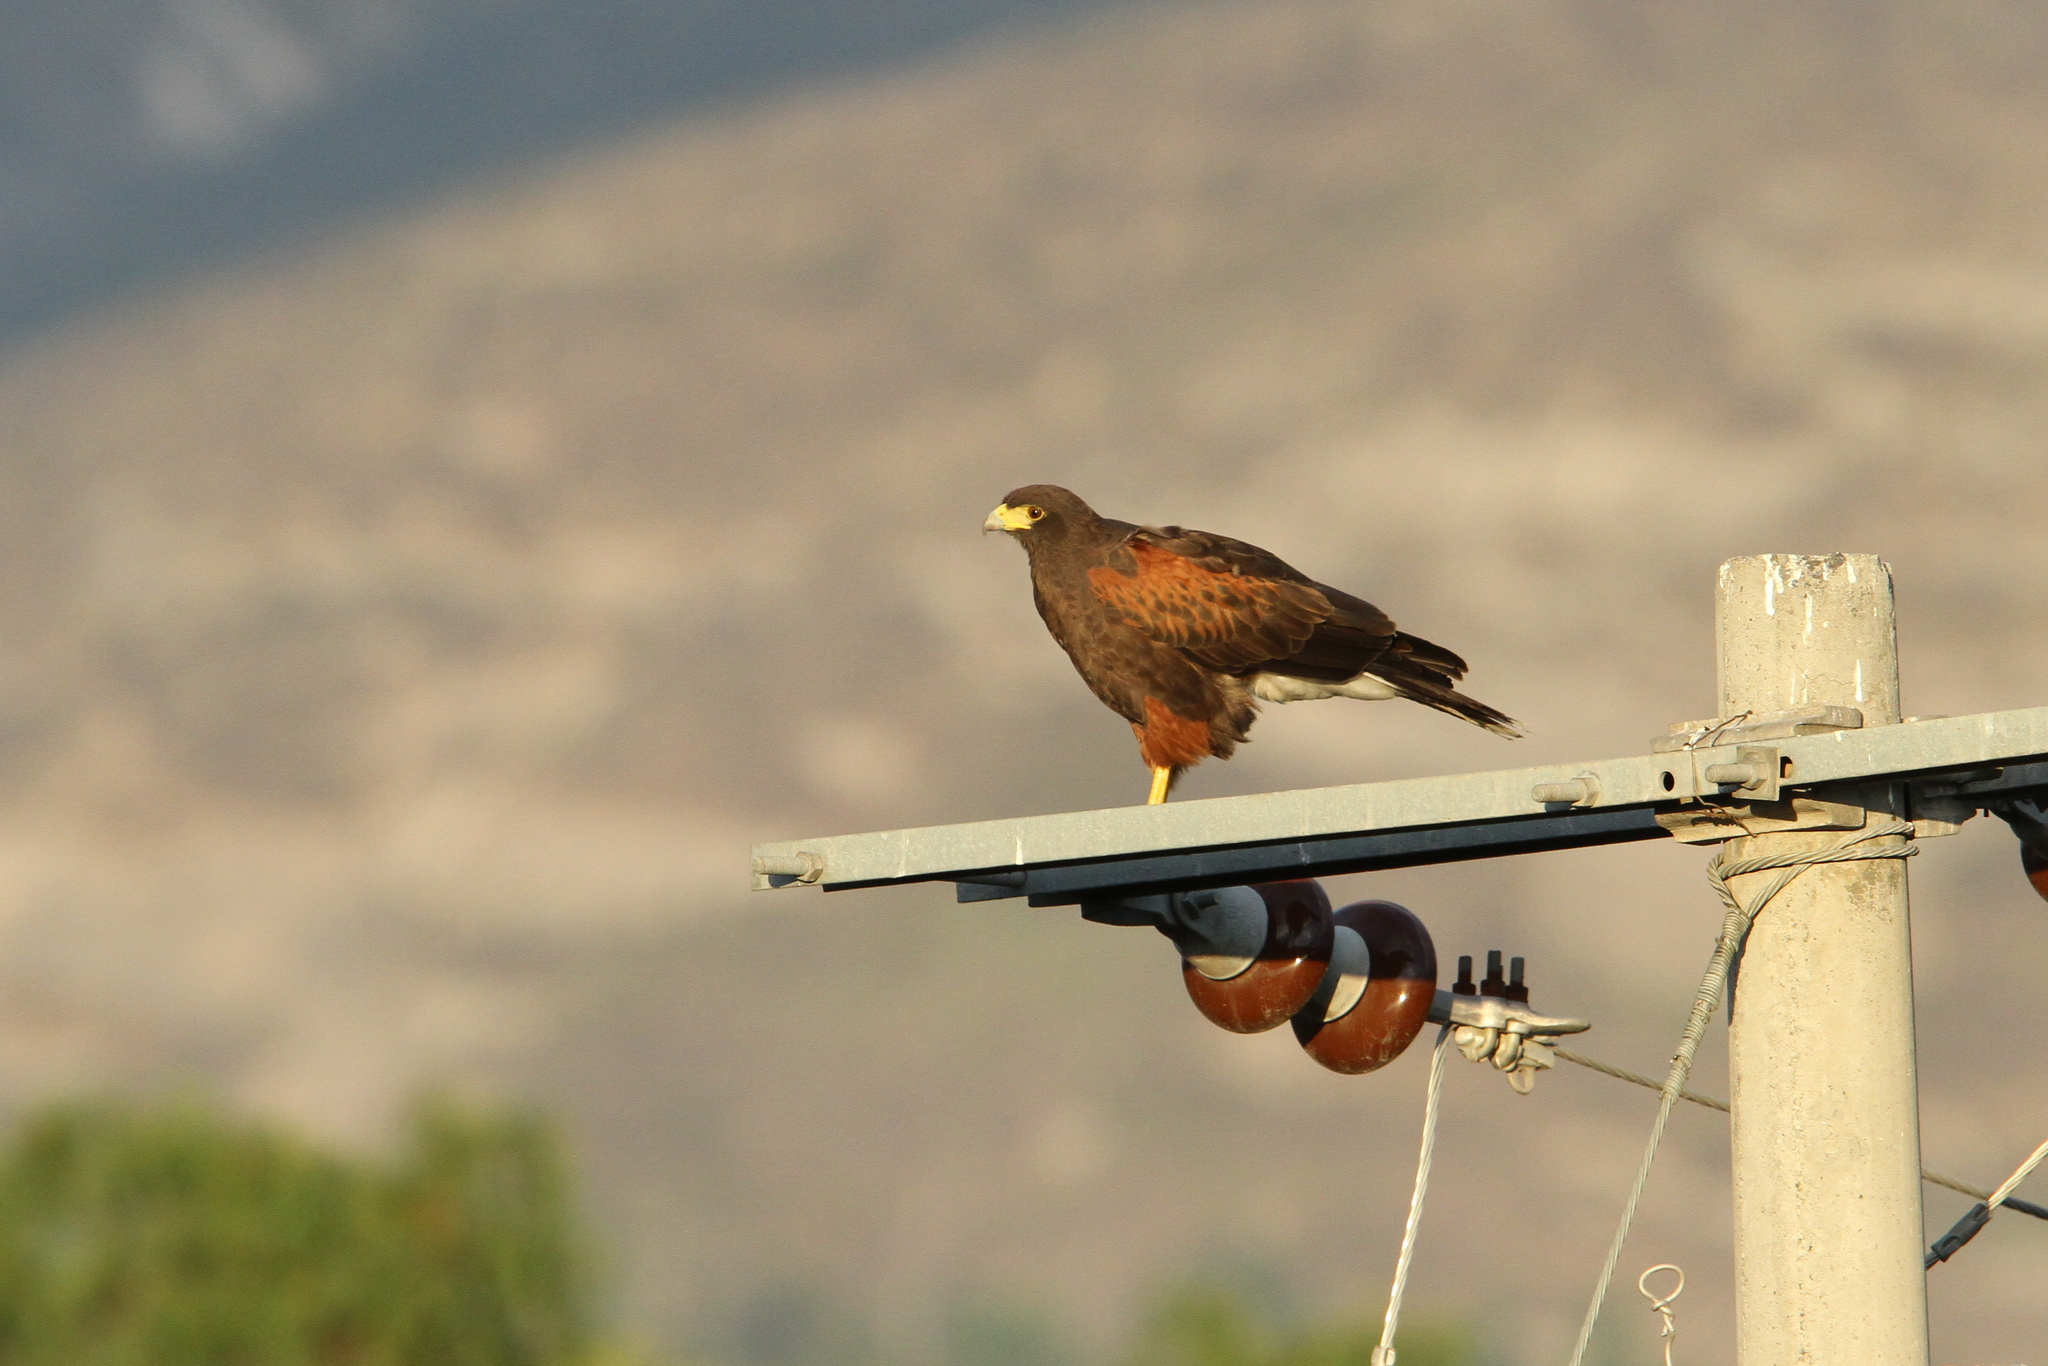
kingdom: Animalia
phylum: Chordata
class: Aves
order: Accipitriformes
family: Accipitridae
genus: Parabuteo
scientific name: Parabuteo unicinctus
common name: Harris's hawk
